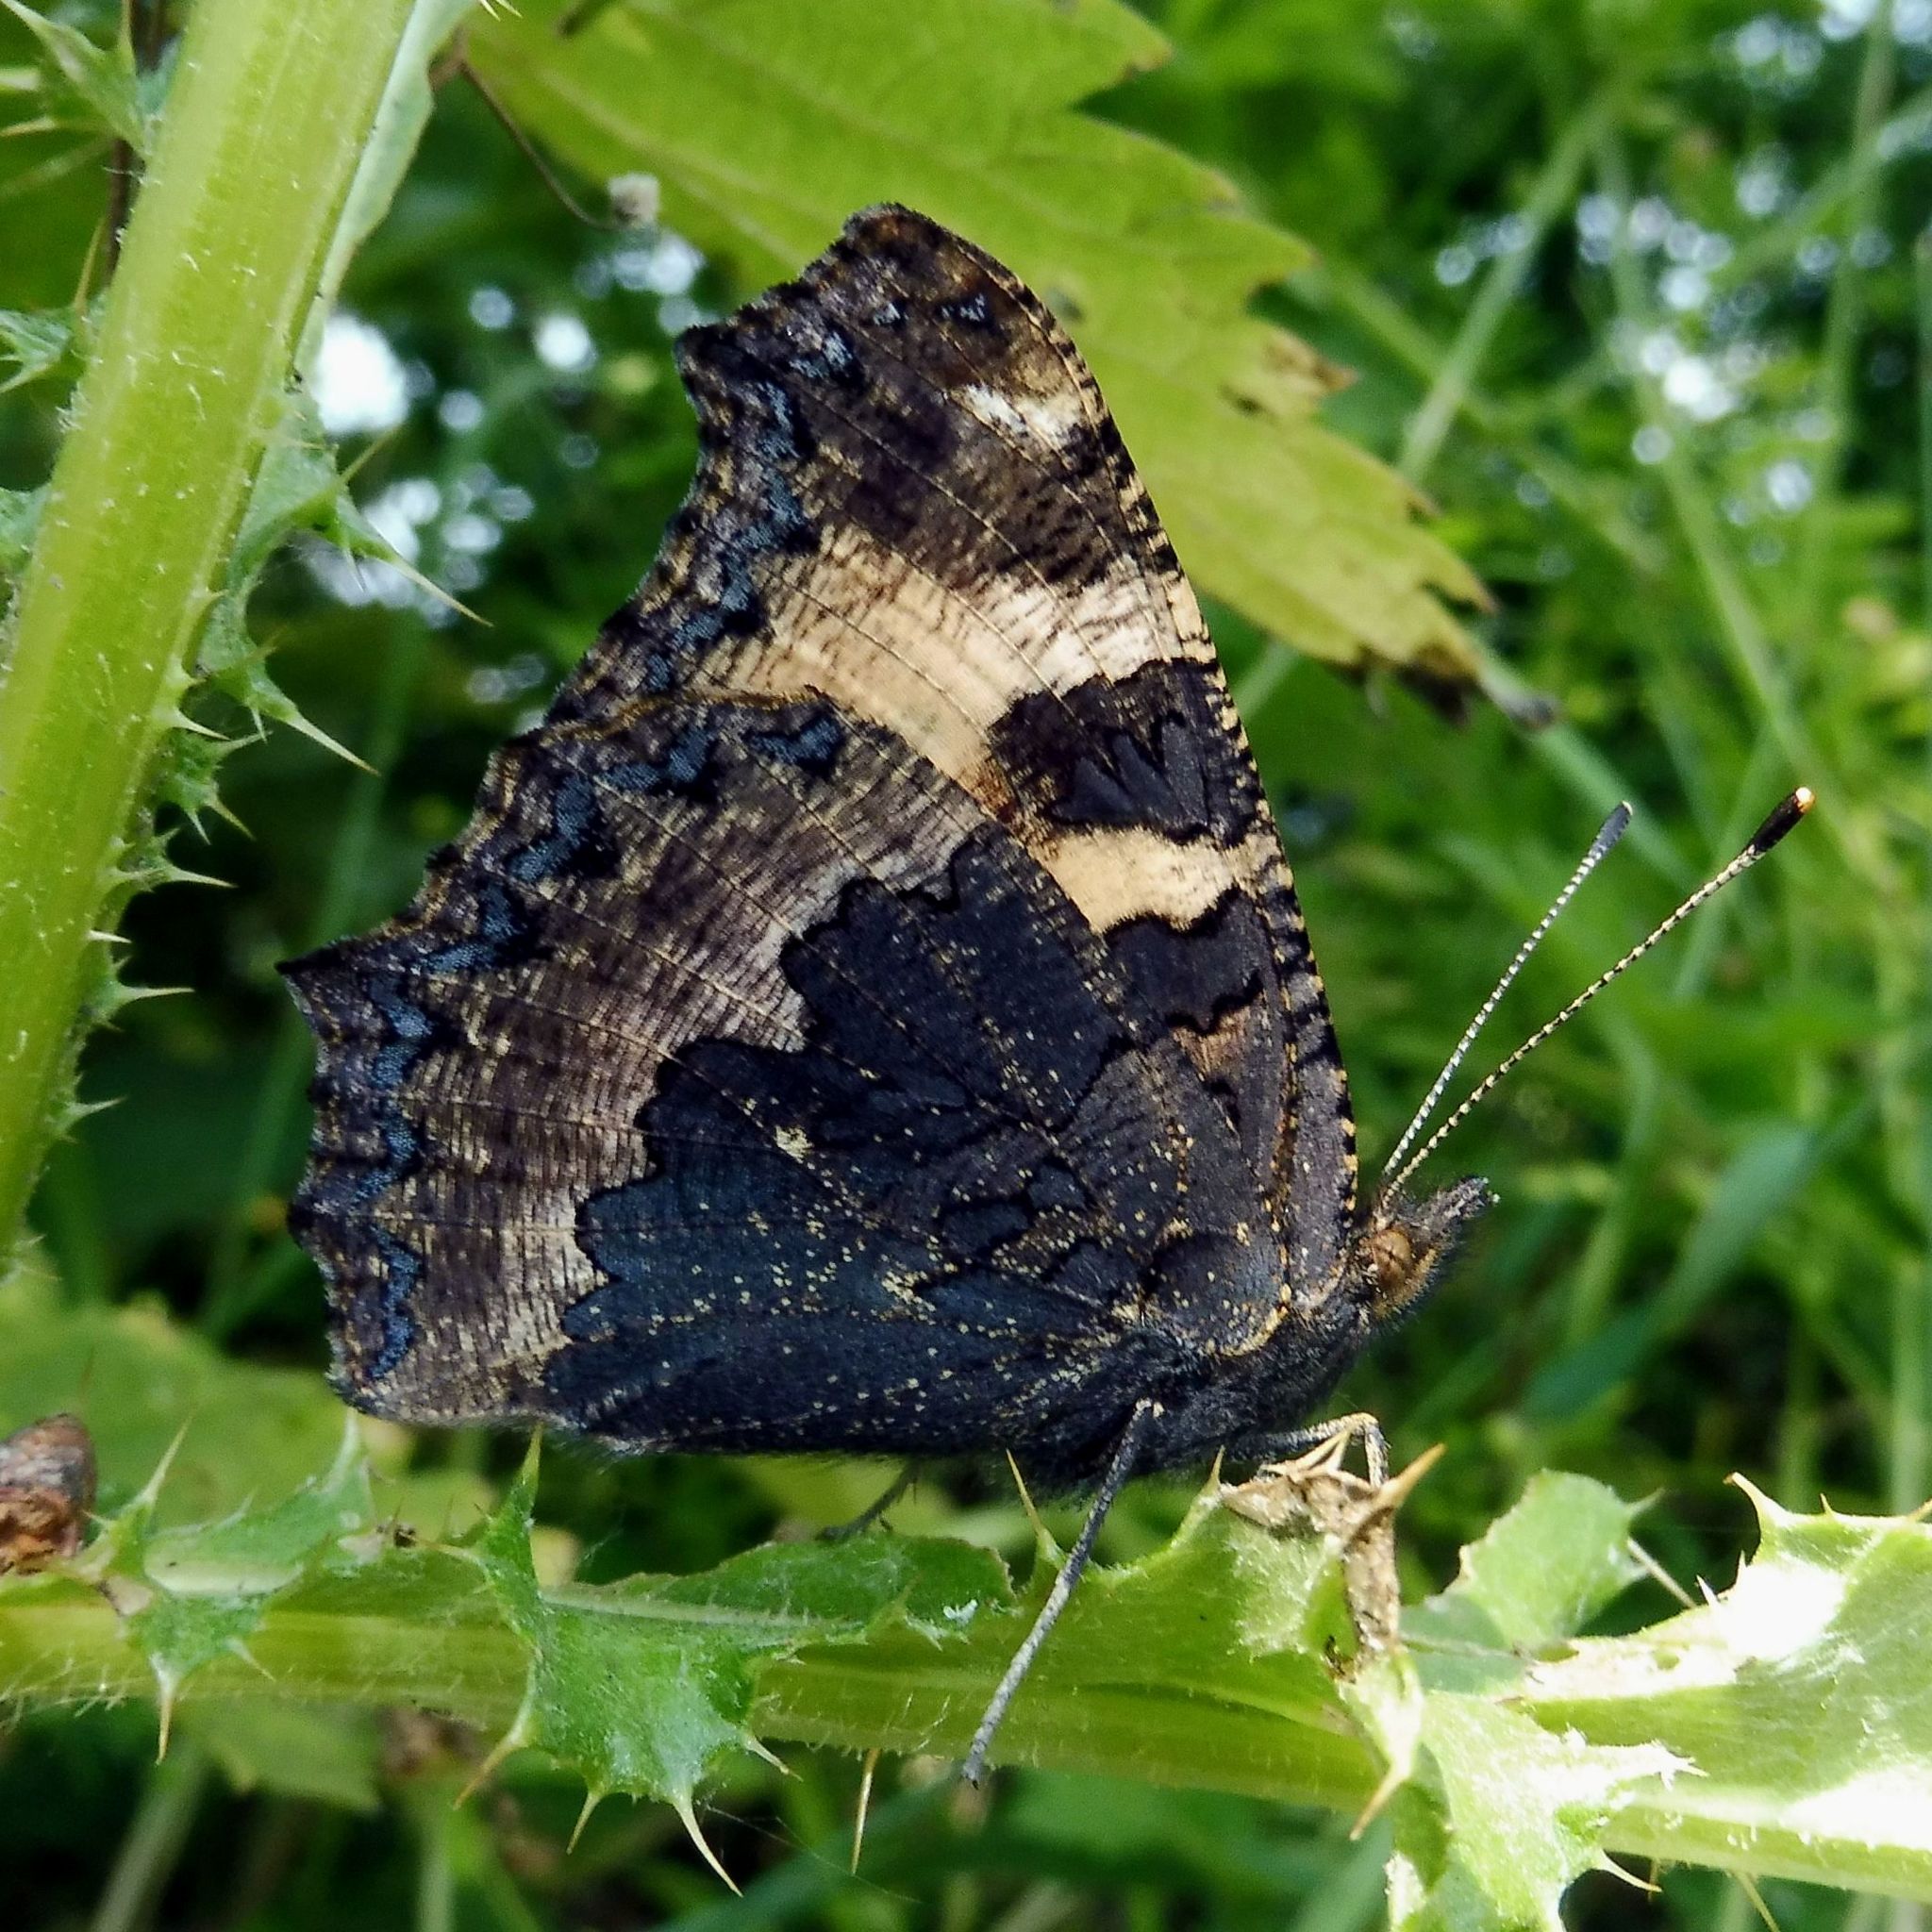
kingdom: Animalia
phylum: Arthropoda
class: Insecta
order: Lepidoptera
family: Nymphalidae
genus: Aglais
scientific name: Aglais urticae
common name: Small tortoiseshell
